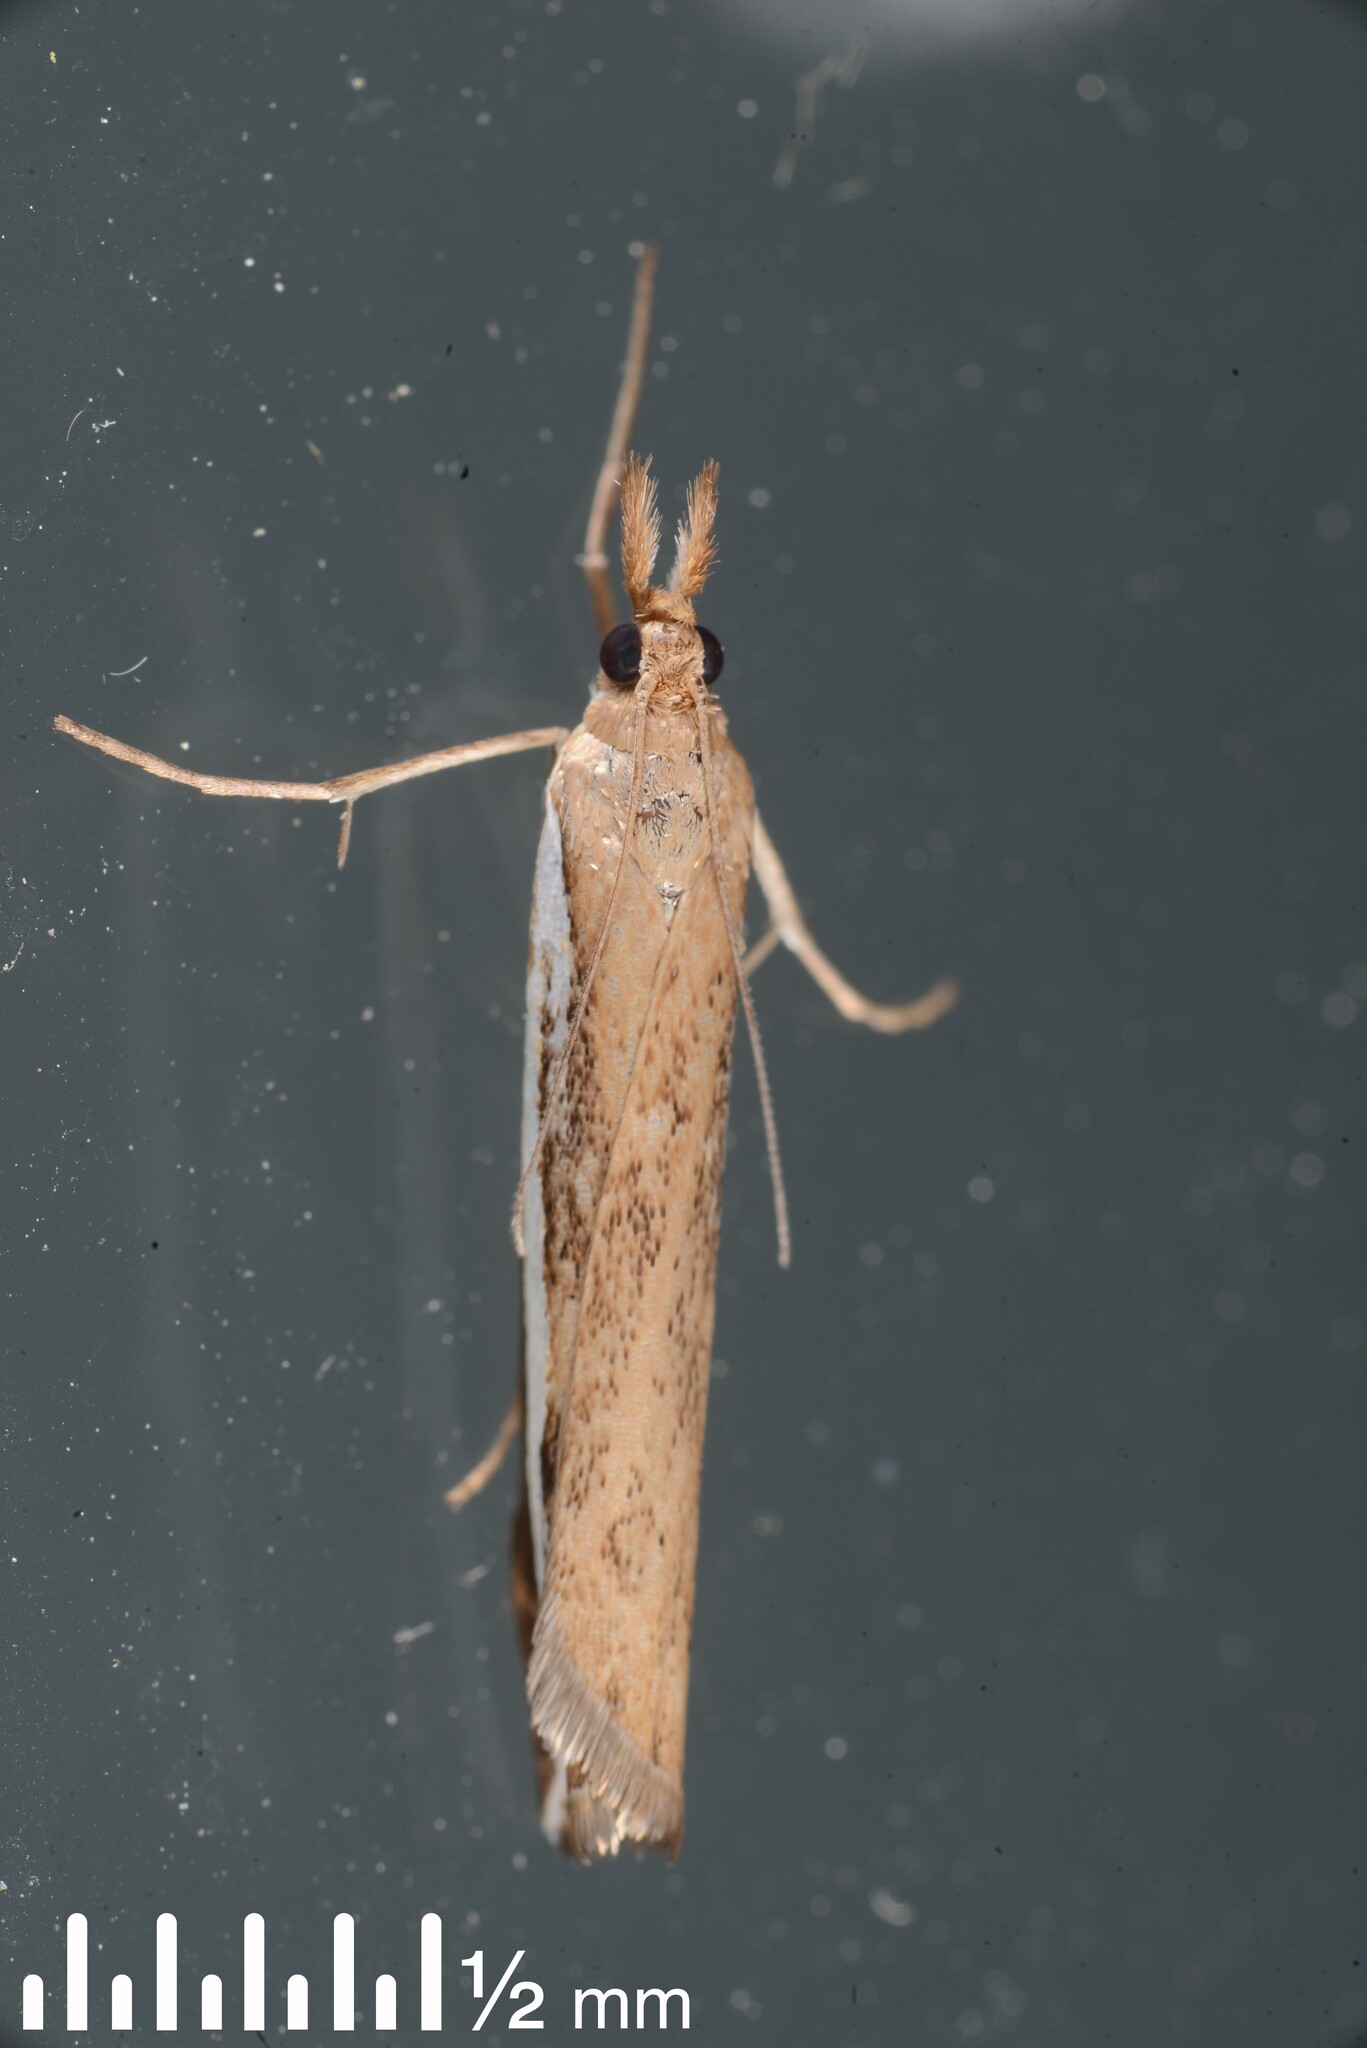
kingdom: Animalia
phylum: Arthropoda
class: Insecta
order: Lepidoptera
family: Crambidae
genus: Orocrambus
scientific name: Orocrambus flexuosellus
